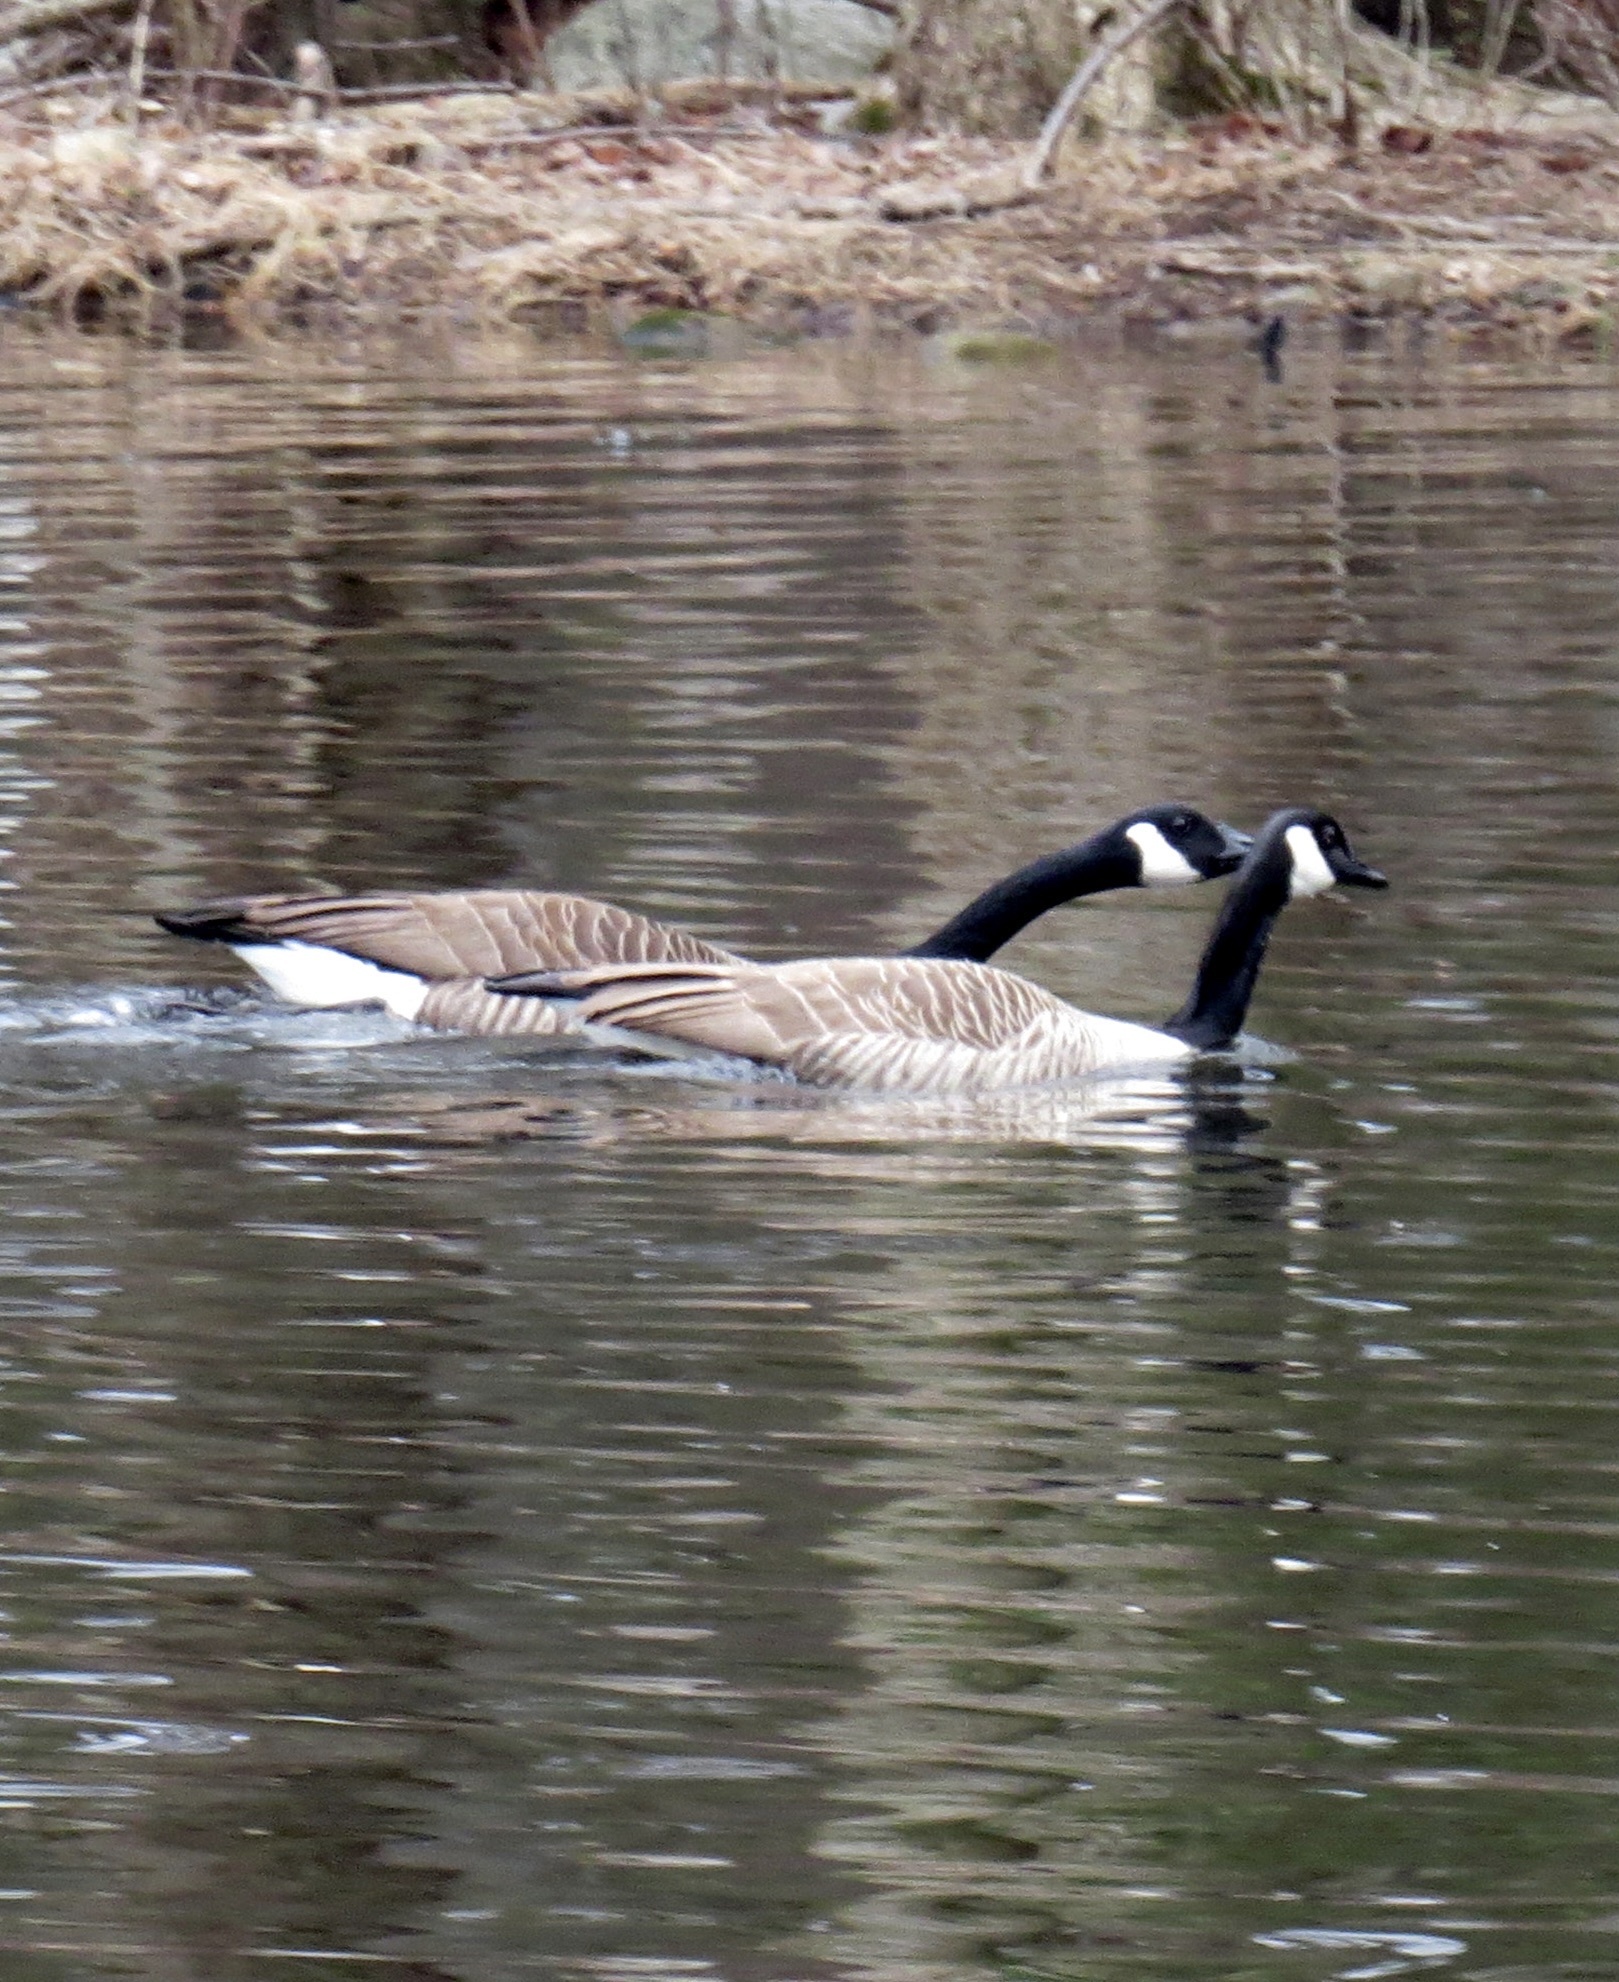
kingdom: Animalia
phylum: Chordata
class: Aves
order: Anseriformes
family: Anatidae
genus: Branta
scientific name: Branta canadensis
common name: Canada goose
